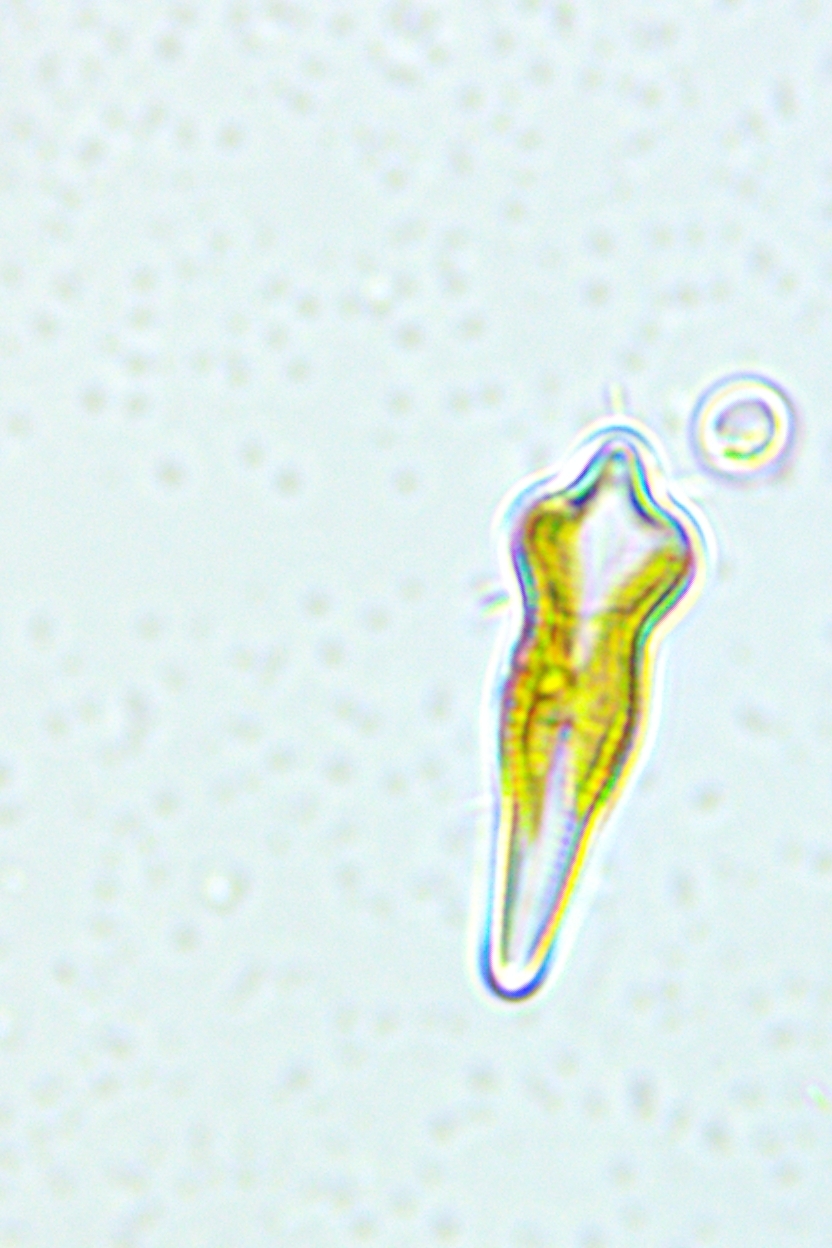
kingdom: Chromista
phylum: Ochrophyta
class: Bacillariophyceae
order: Cymbellales
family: Gomphonemataceae
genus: Gomphonema
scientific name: Gomphonema acuminatum
